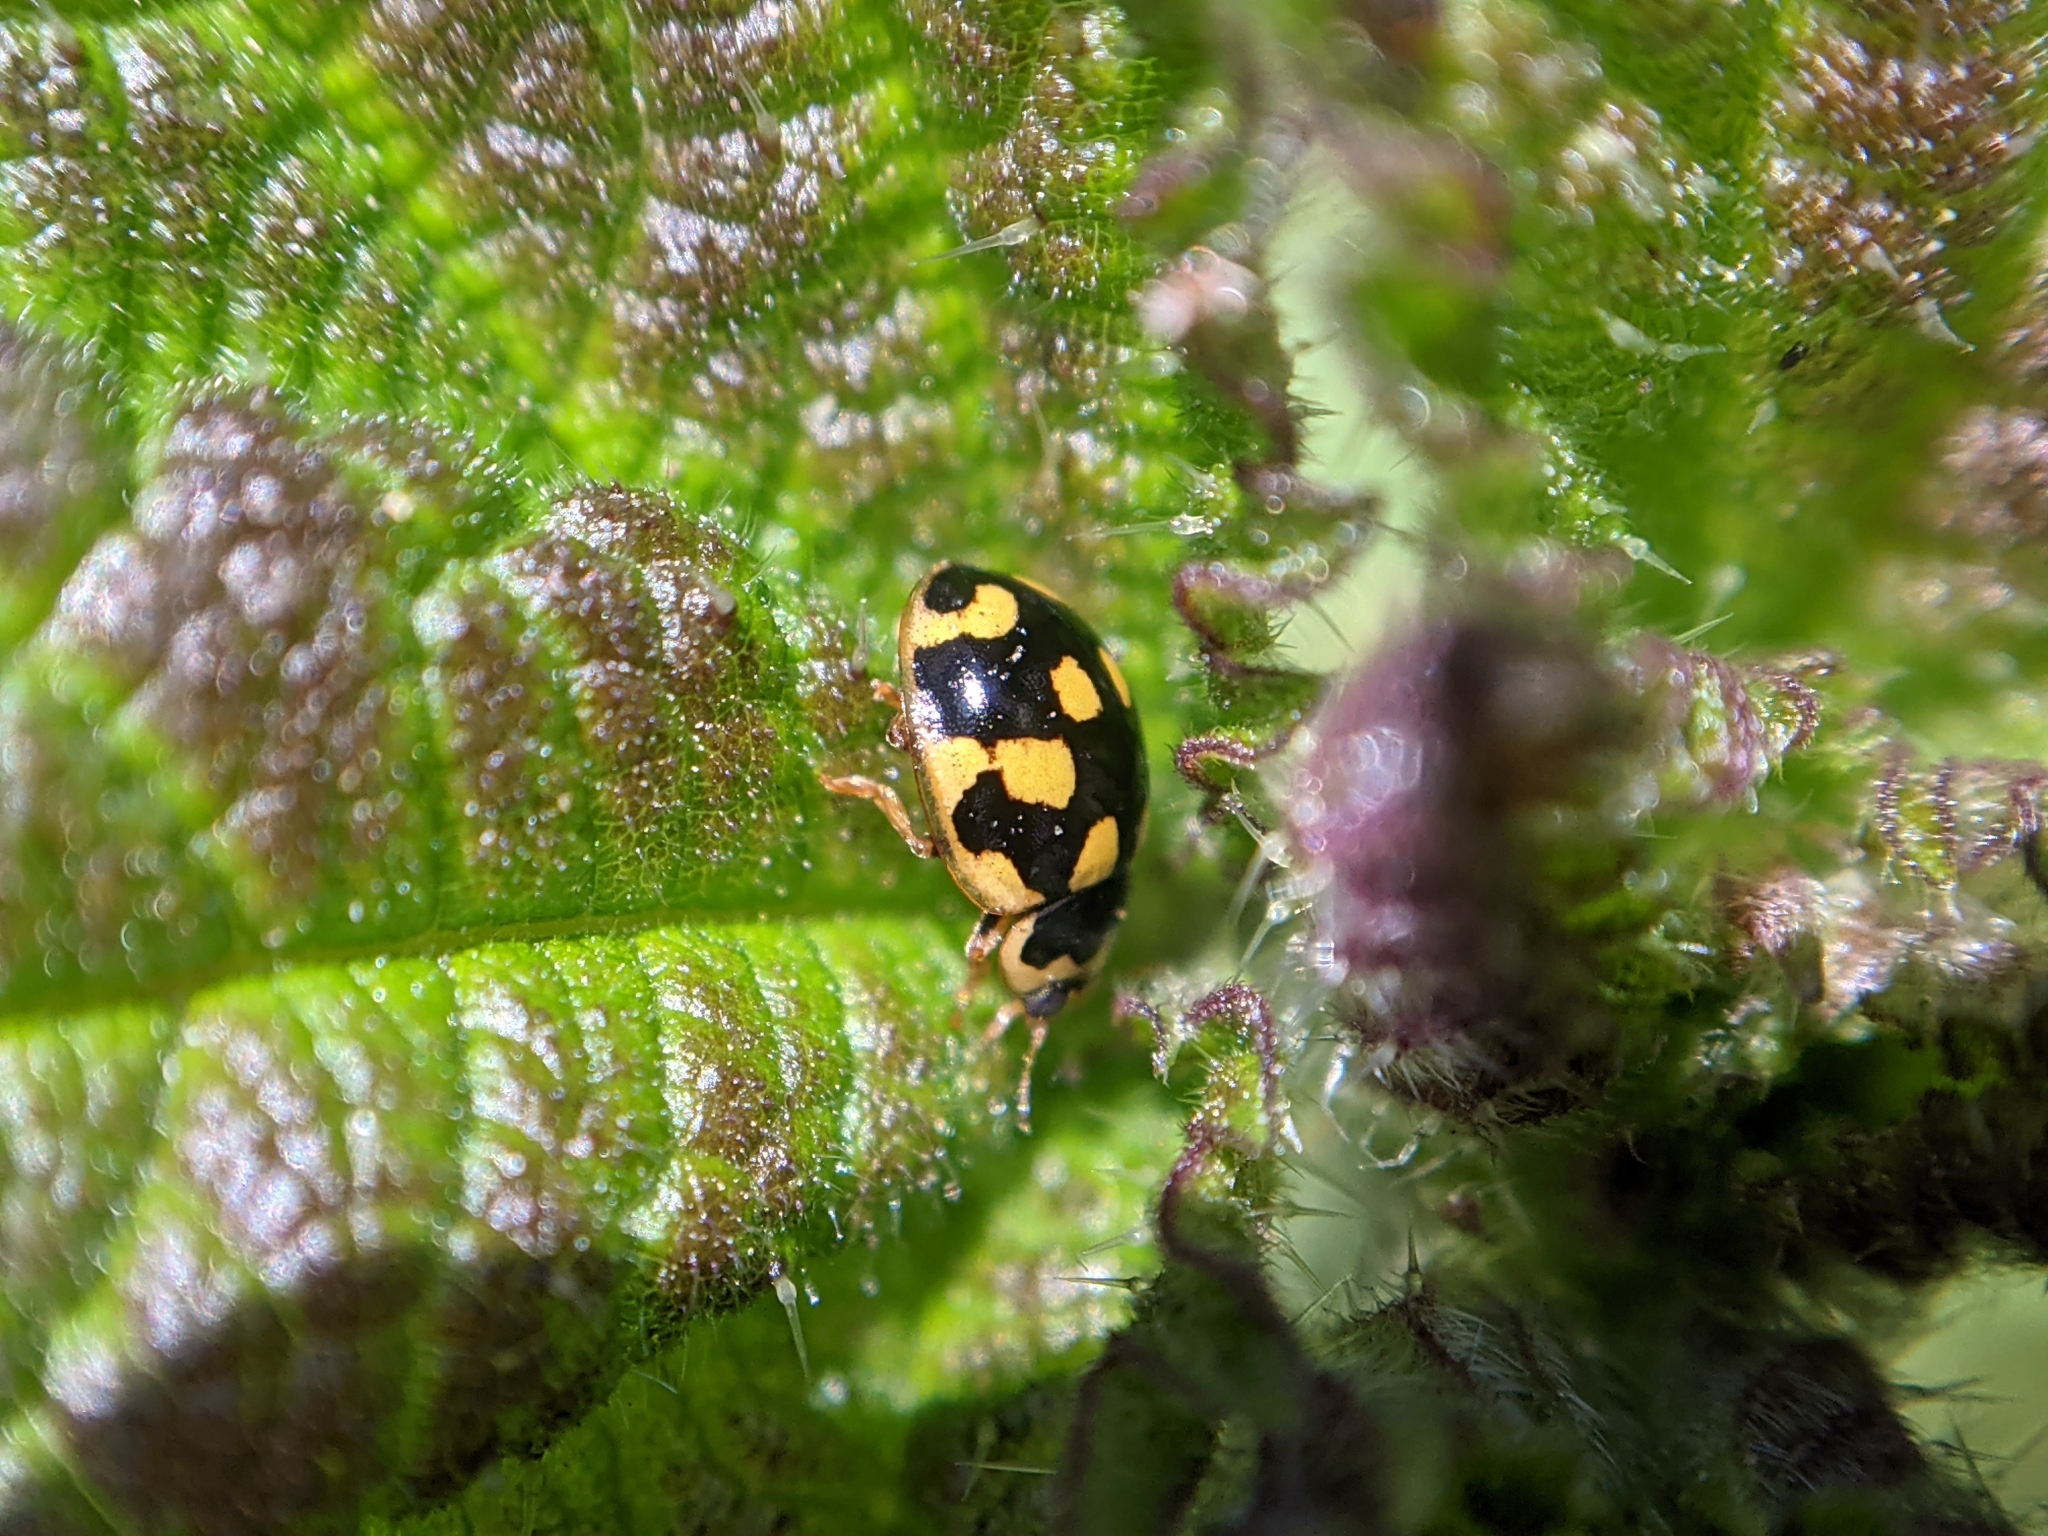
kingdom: Animalia
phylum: Arthropoda
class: Insecta
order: Coleoptera
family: Coccinellidae
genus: Propylaea
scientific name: Propylaea quatuordecimpunctata
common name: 14-spotted ladybird beetle
